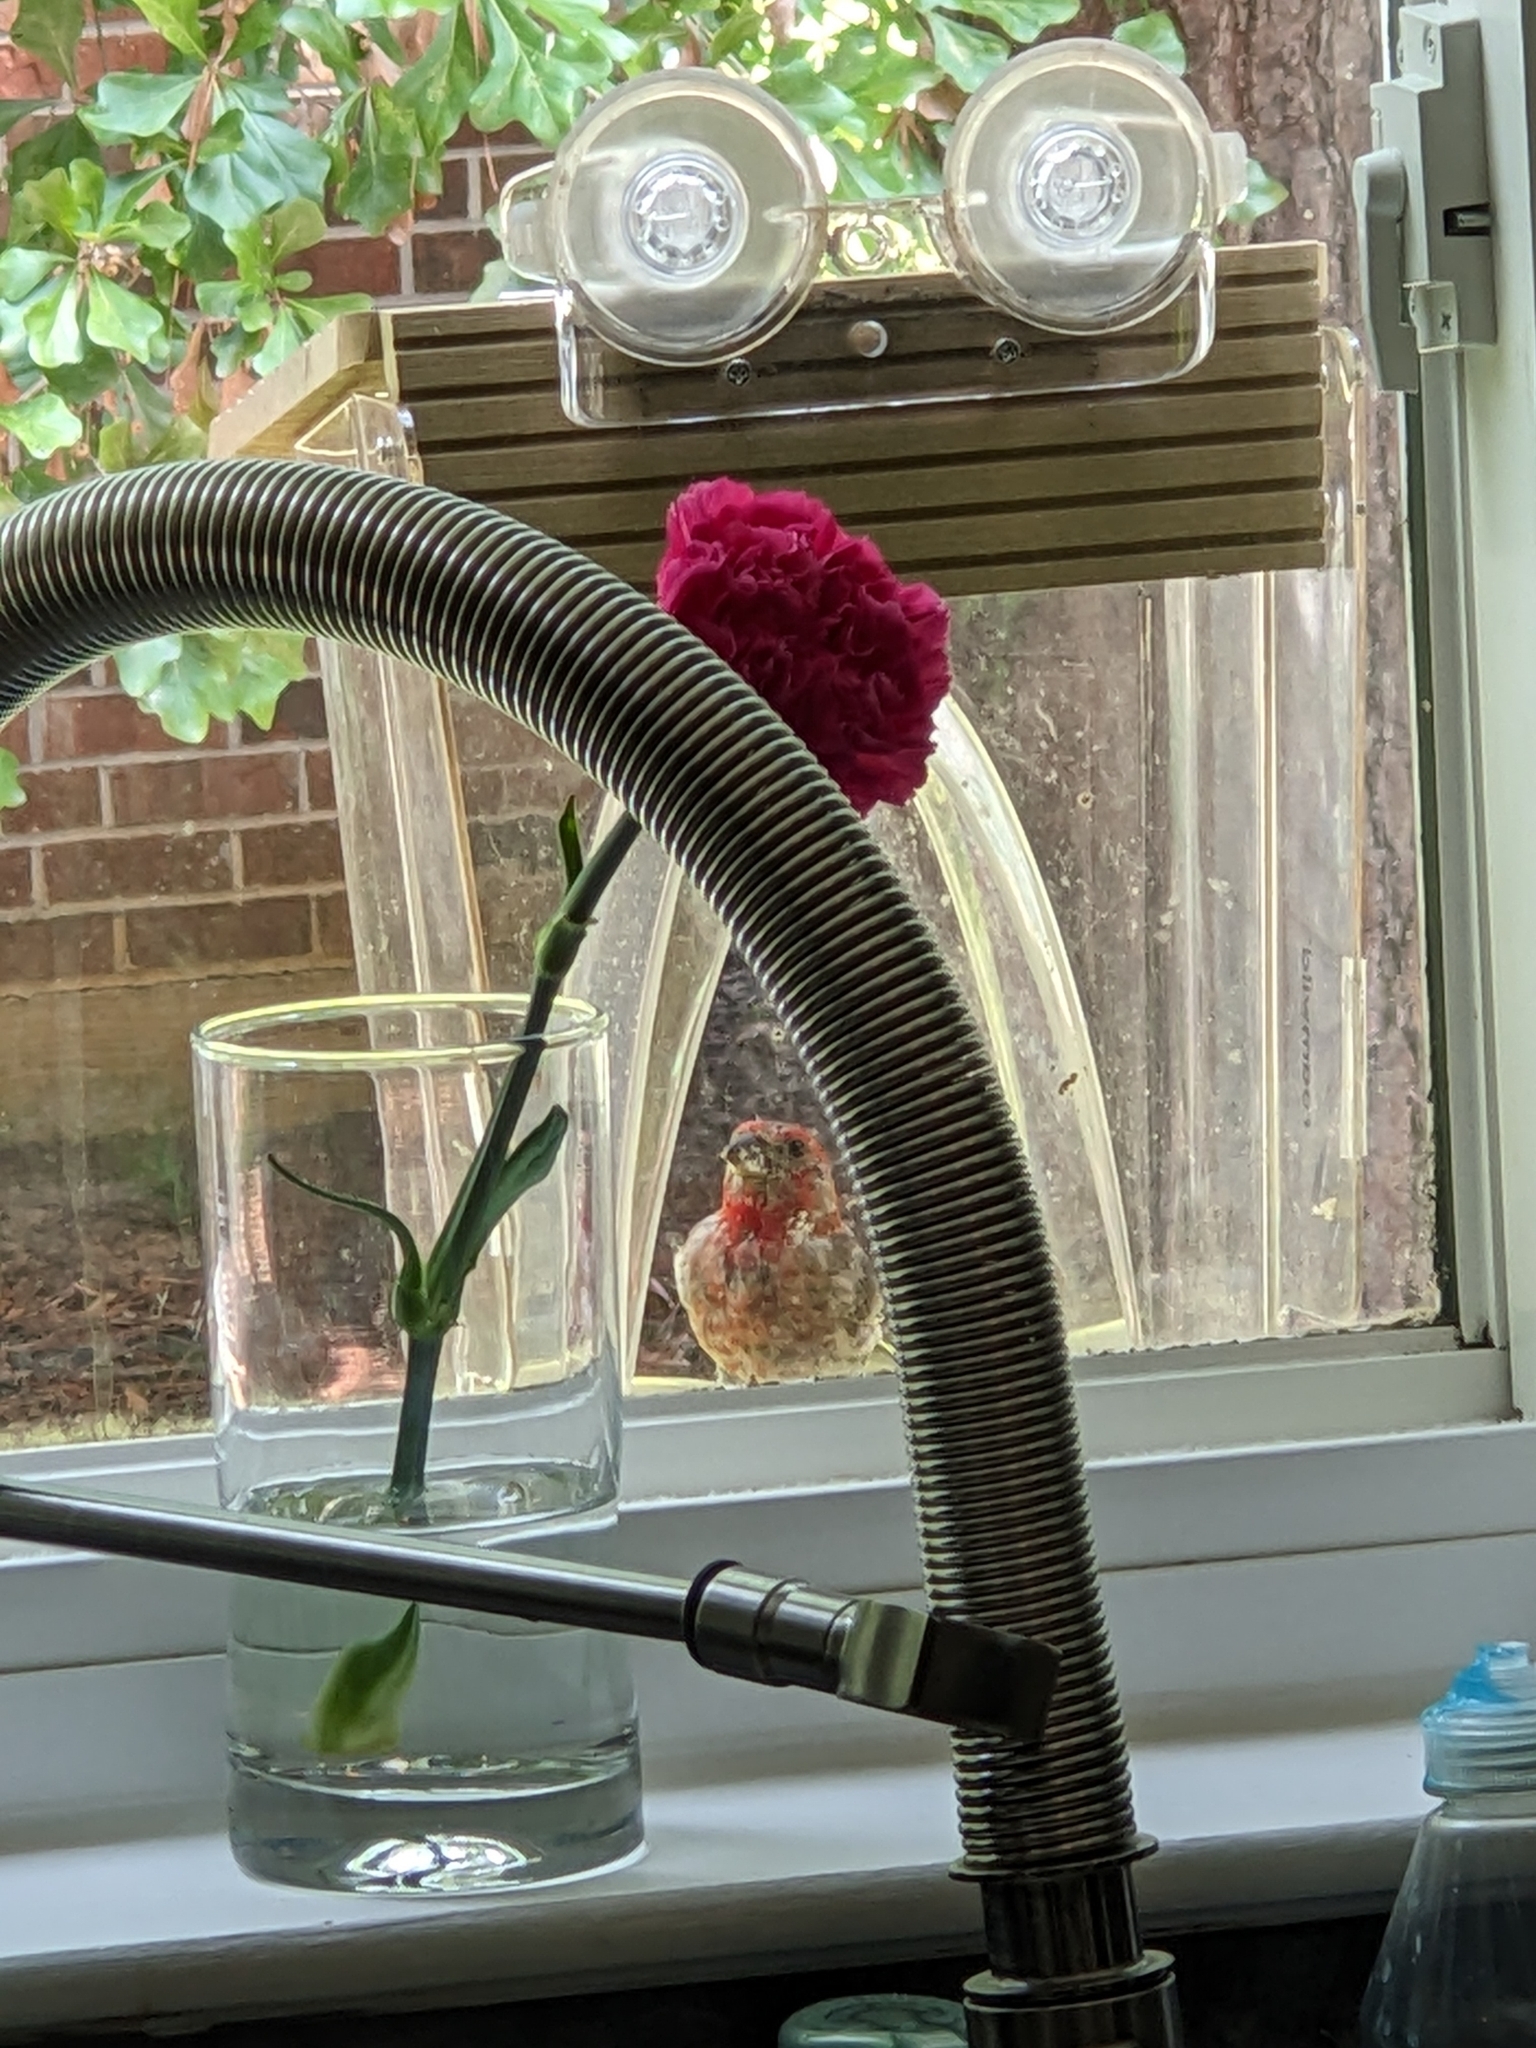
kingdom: Animalia
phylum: Chordata
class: Aves
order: Passeriformes
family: Fringillidae
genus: Haemorhous
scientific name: Haemorhous mexicanus
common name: House finch
